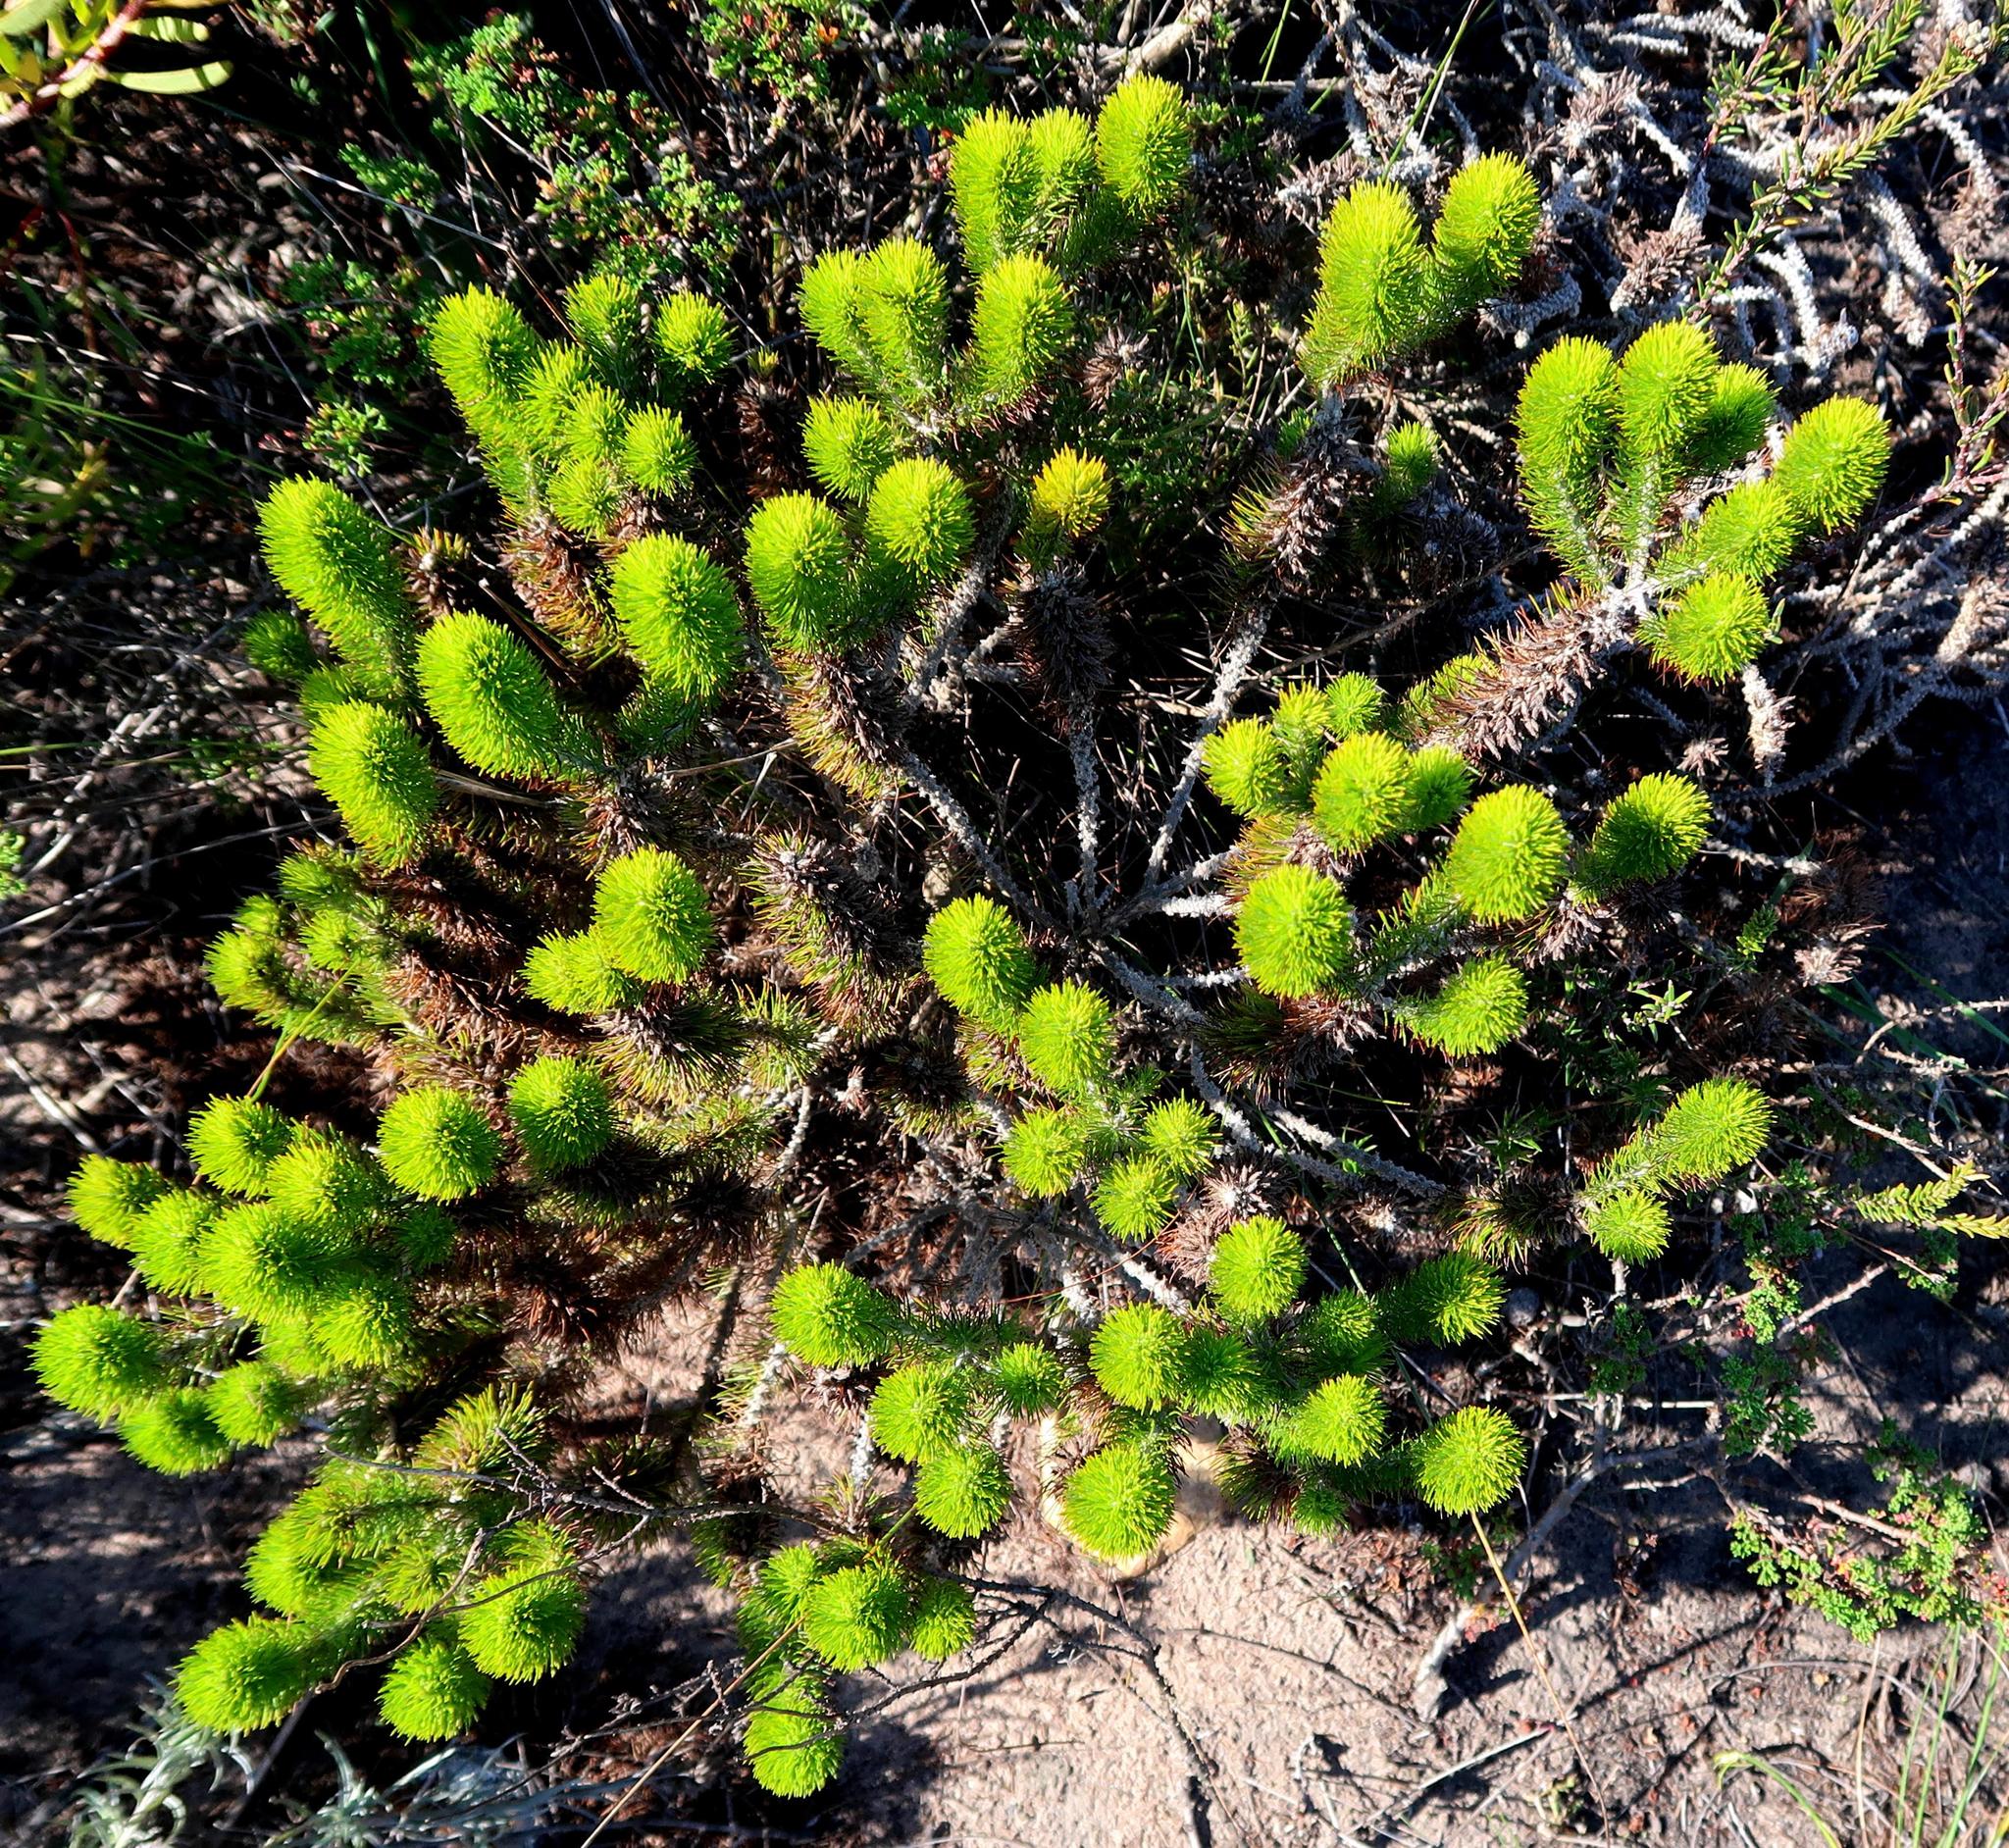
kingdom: Plantae
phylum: Tracheophyta
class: Magnoliopsida
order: Fabales
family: Fabaceae
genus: Aspalathus
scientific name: Aspalathus alopecurus
